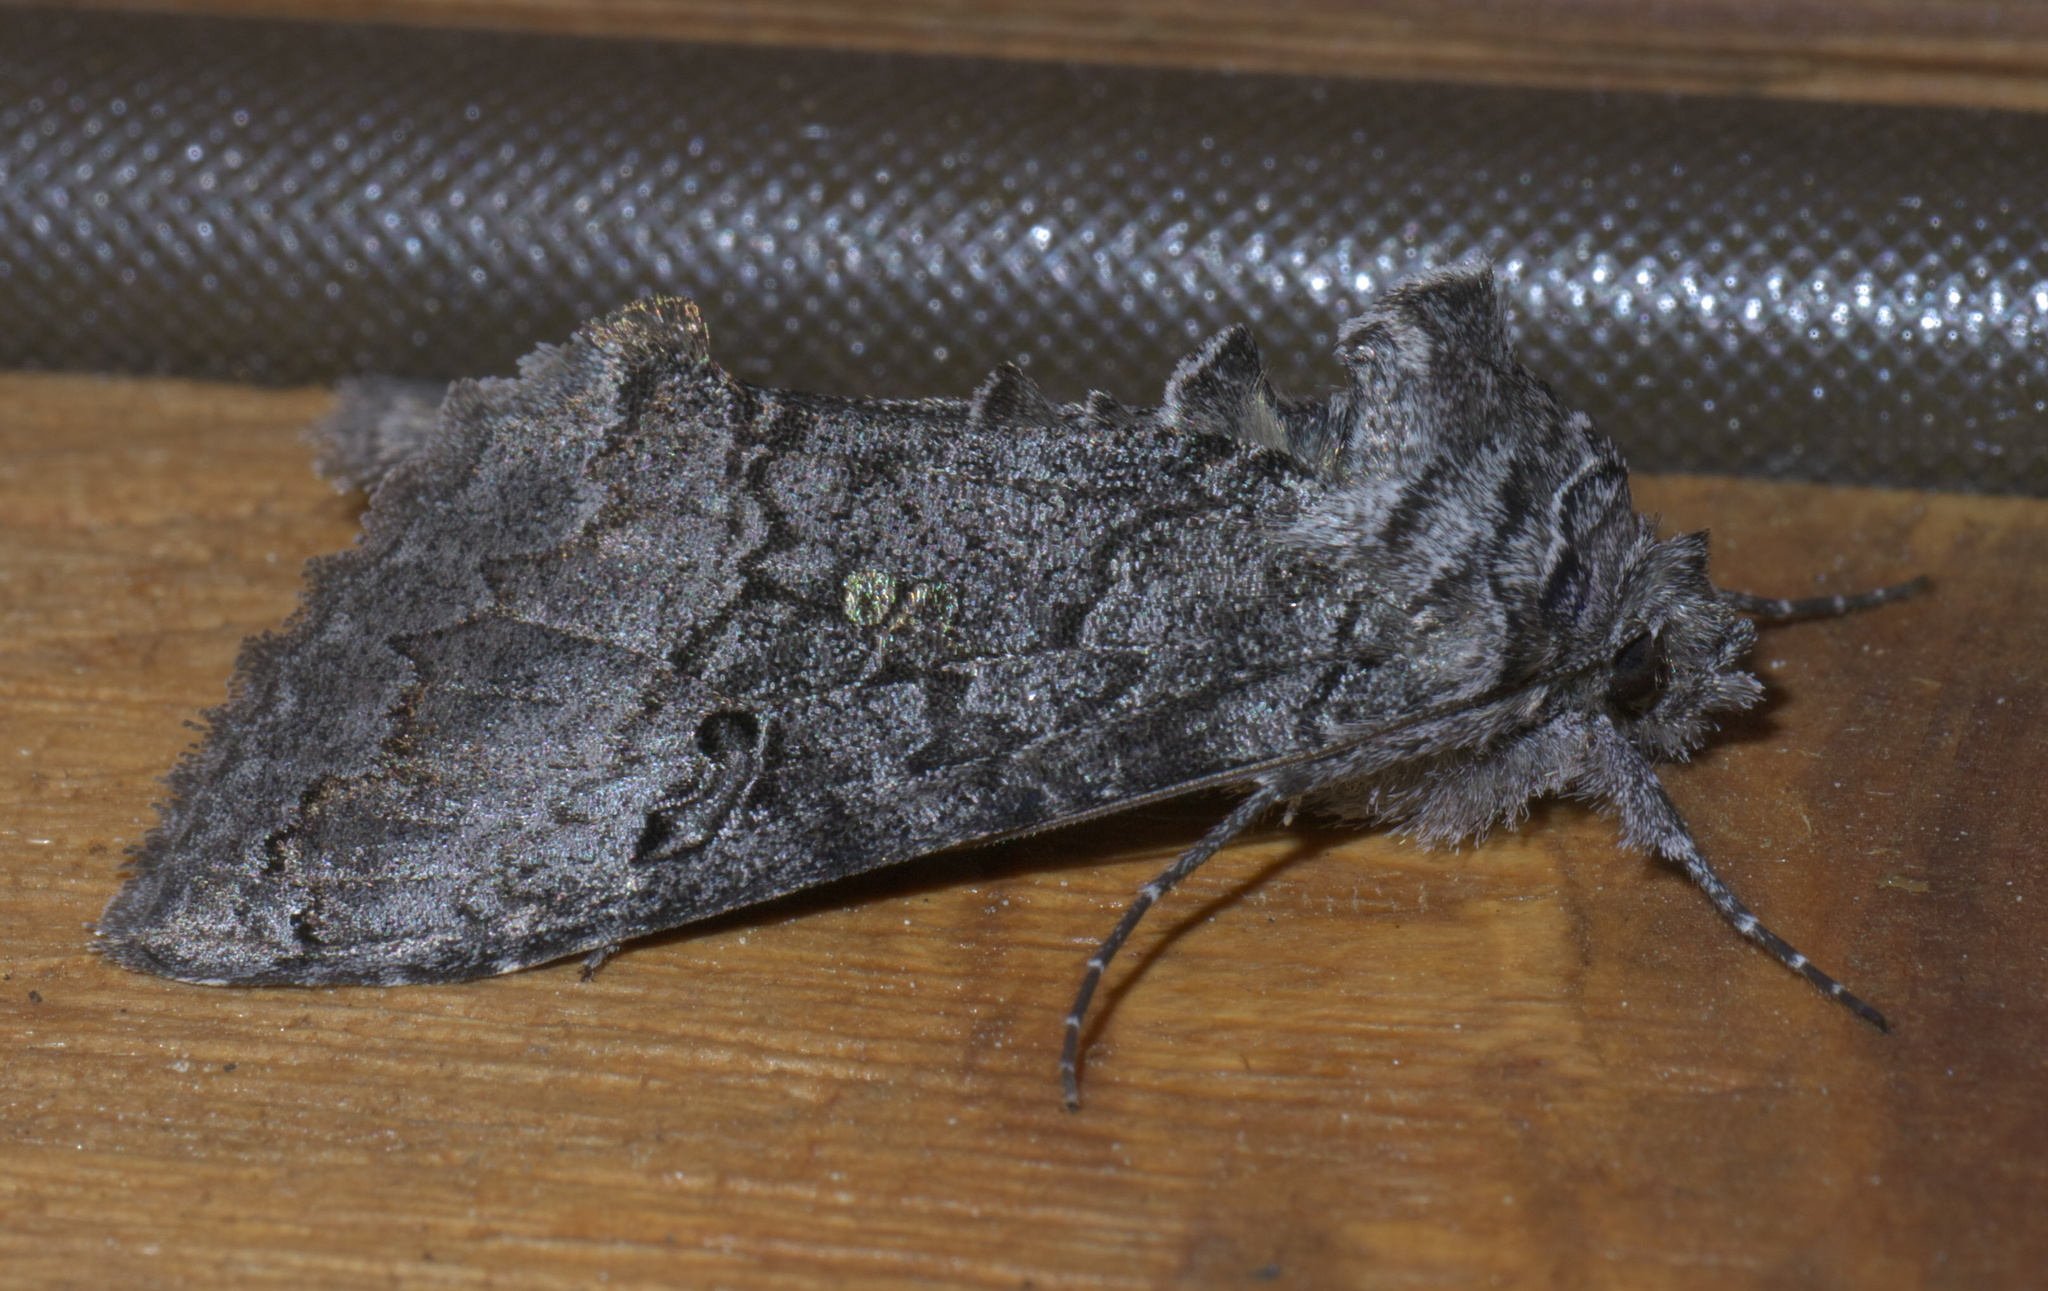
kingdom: Animalia
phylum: Arthropoda
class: Insecta
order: Lepidoptera
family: Noctuidae
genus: Syngrapha
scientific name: Syngrapha viridisigma
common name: Spruce false looper moth
